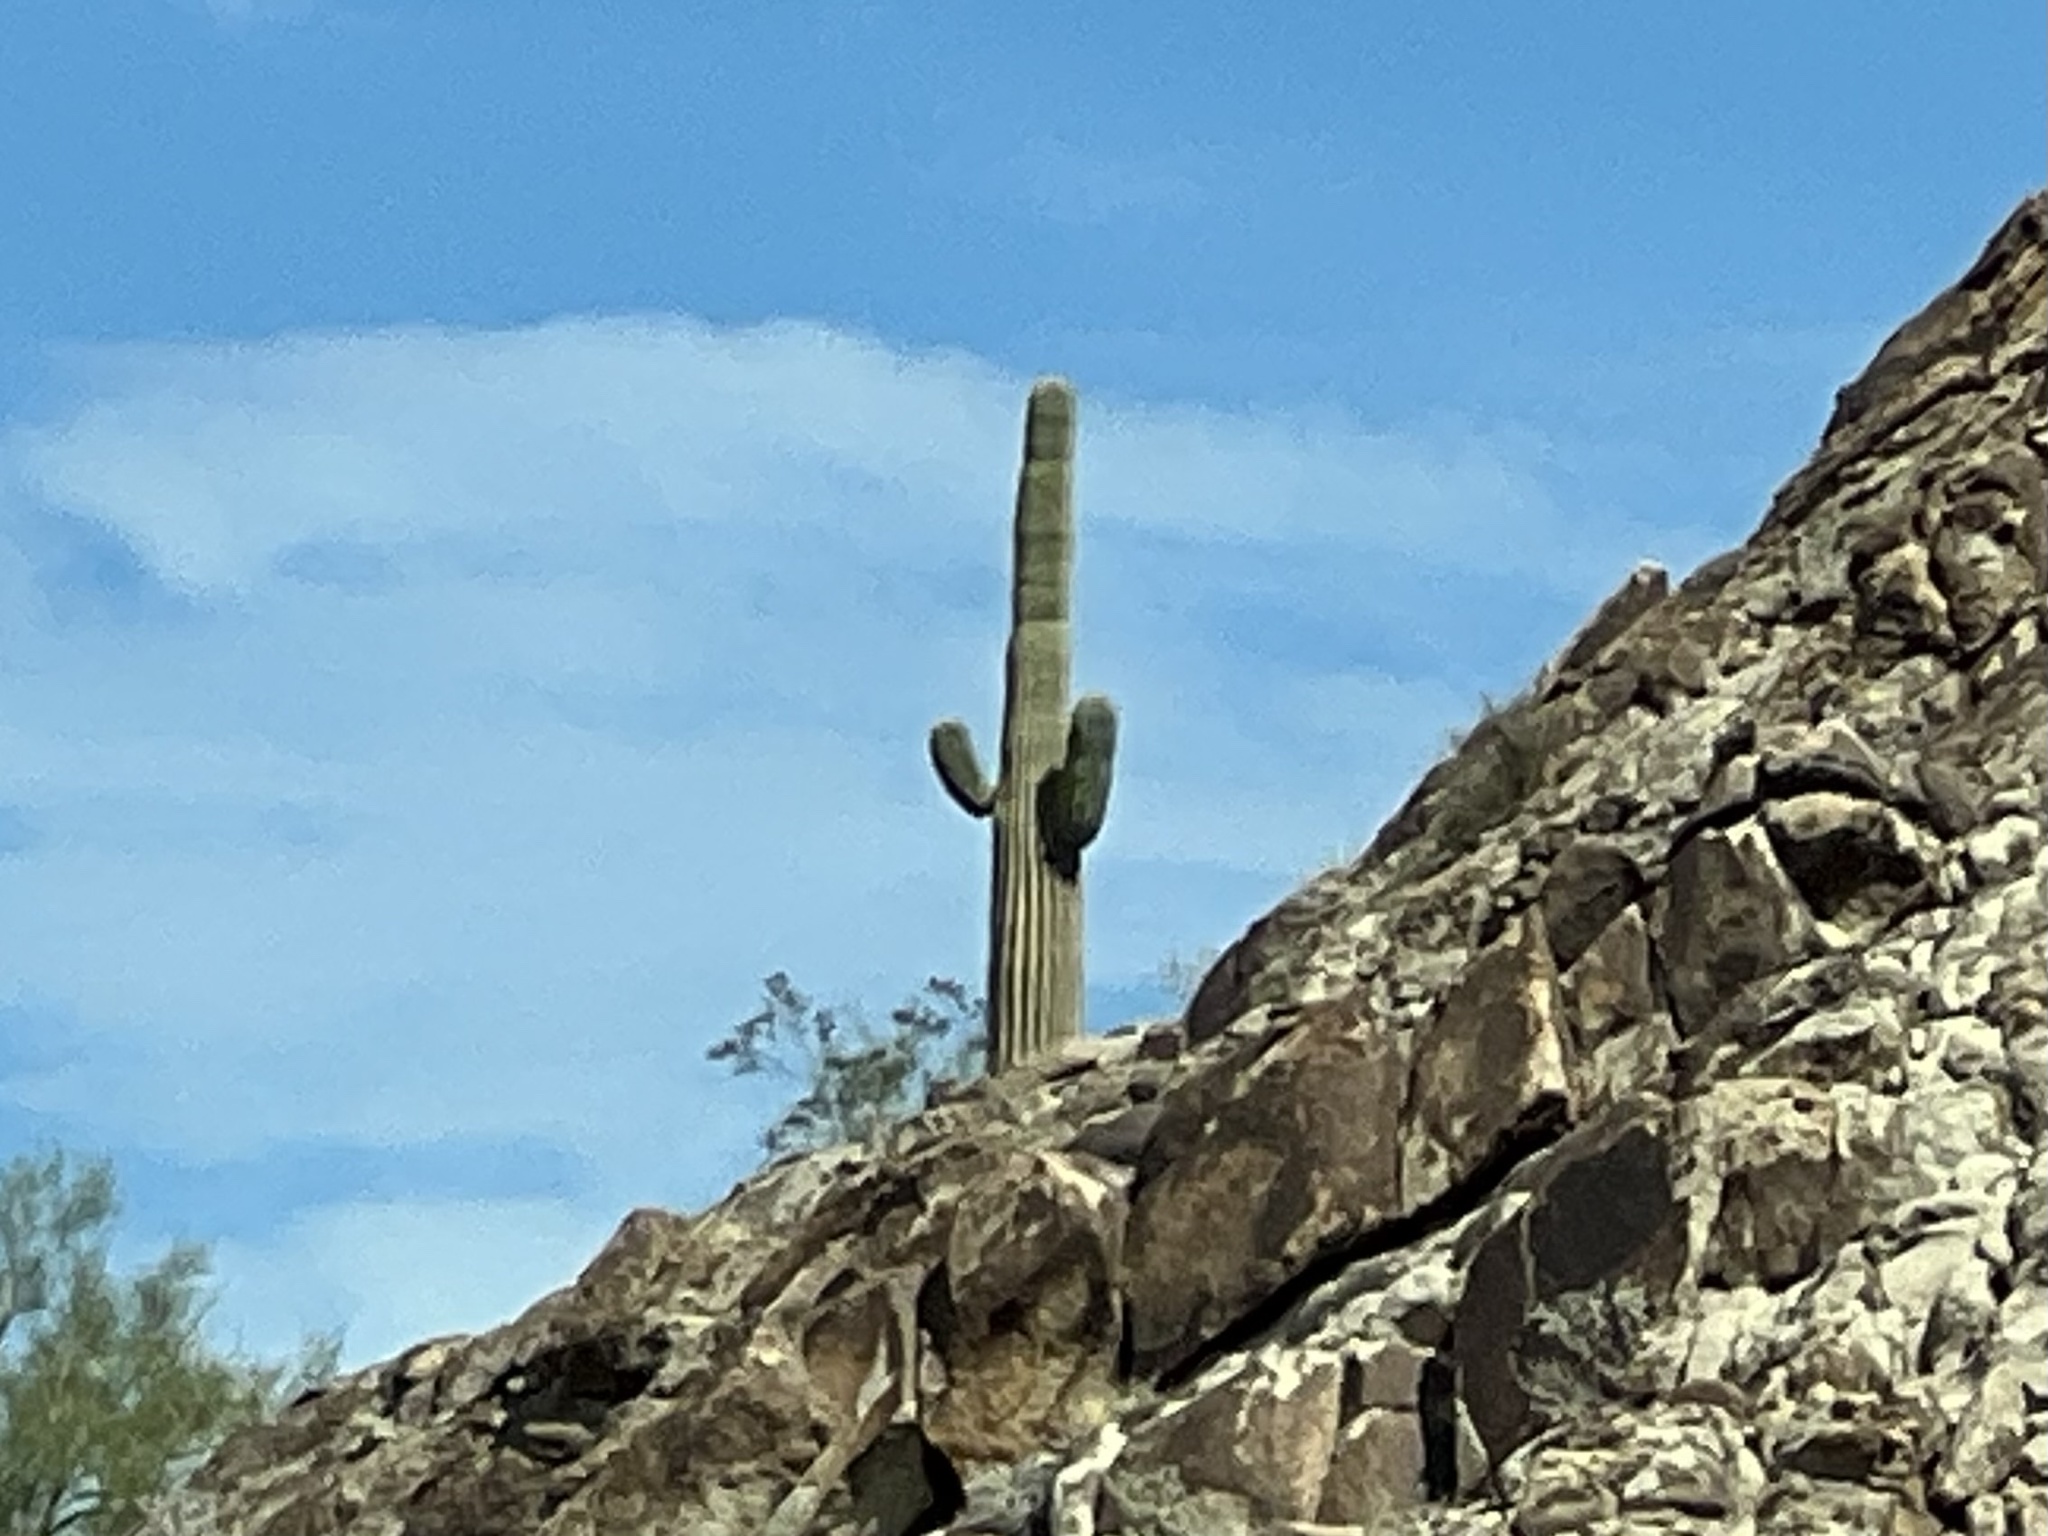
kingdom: Plantae
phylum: Tracheophyta
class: Magnoliopsida
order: Caryophyllales
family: Cactaceae
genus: Carnegiea
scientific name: Carnegiea gigantea
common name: Saguaro
